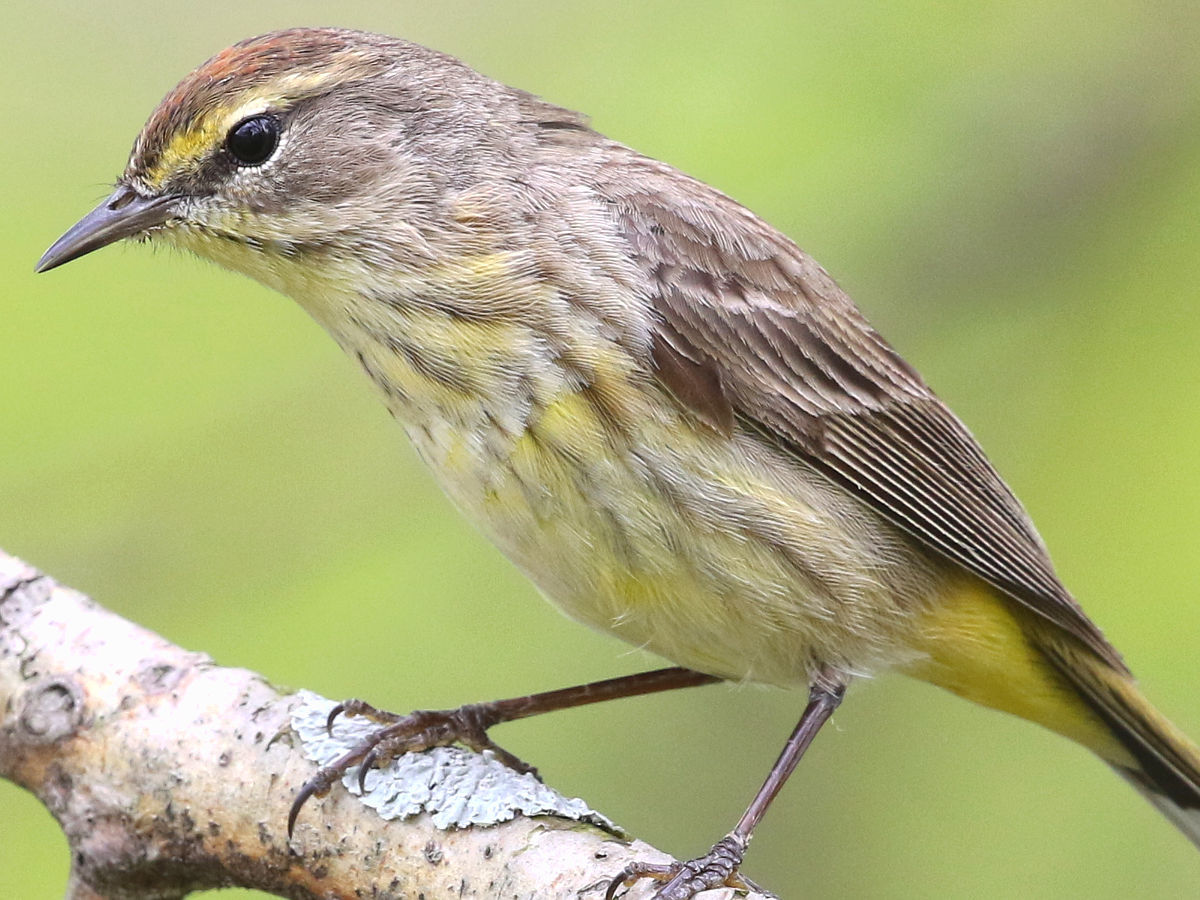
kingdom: Animalia
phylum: Chordata
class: Aves
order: Passeriformes
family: Parulidae
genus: Setophaga
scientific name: Setophaga palmarum
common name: Palm warbler
